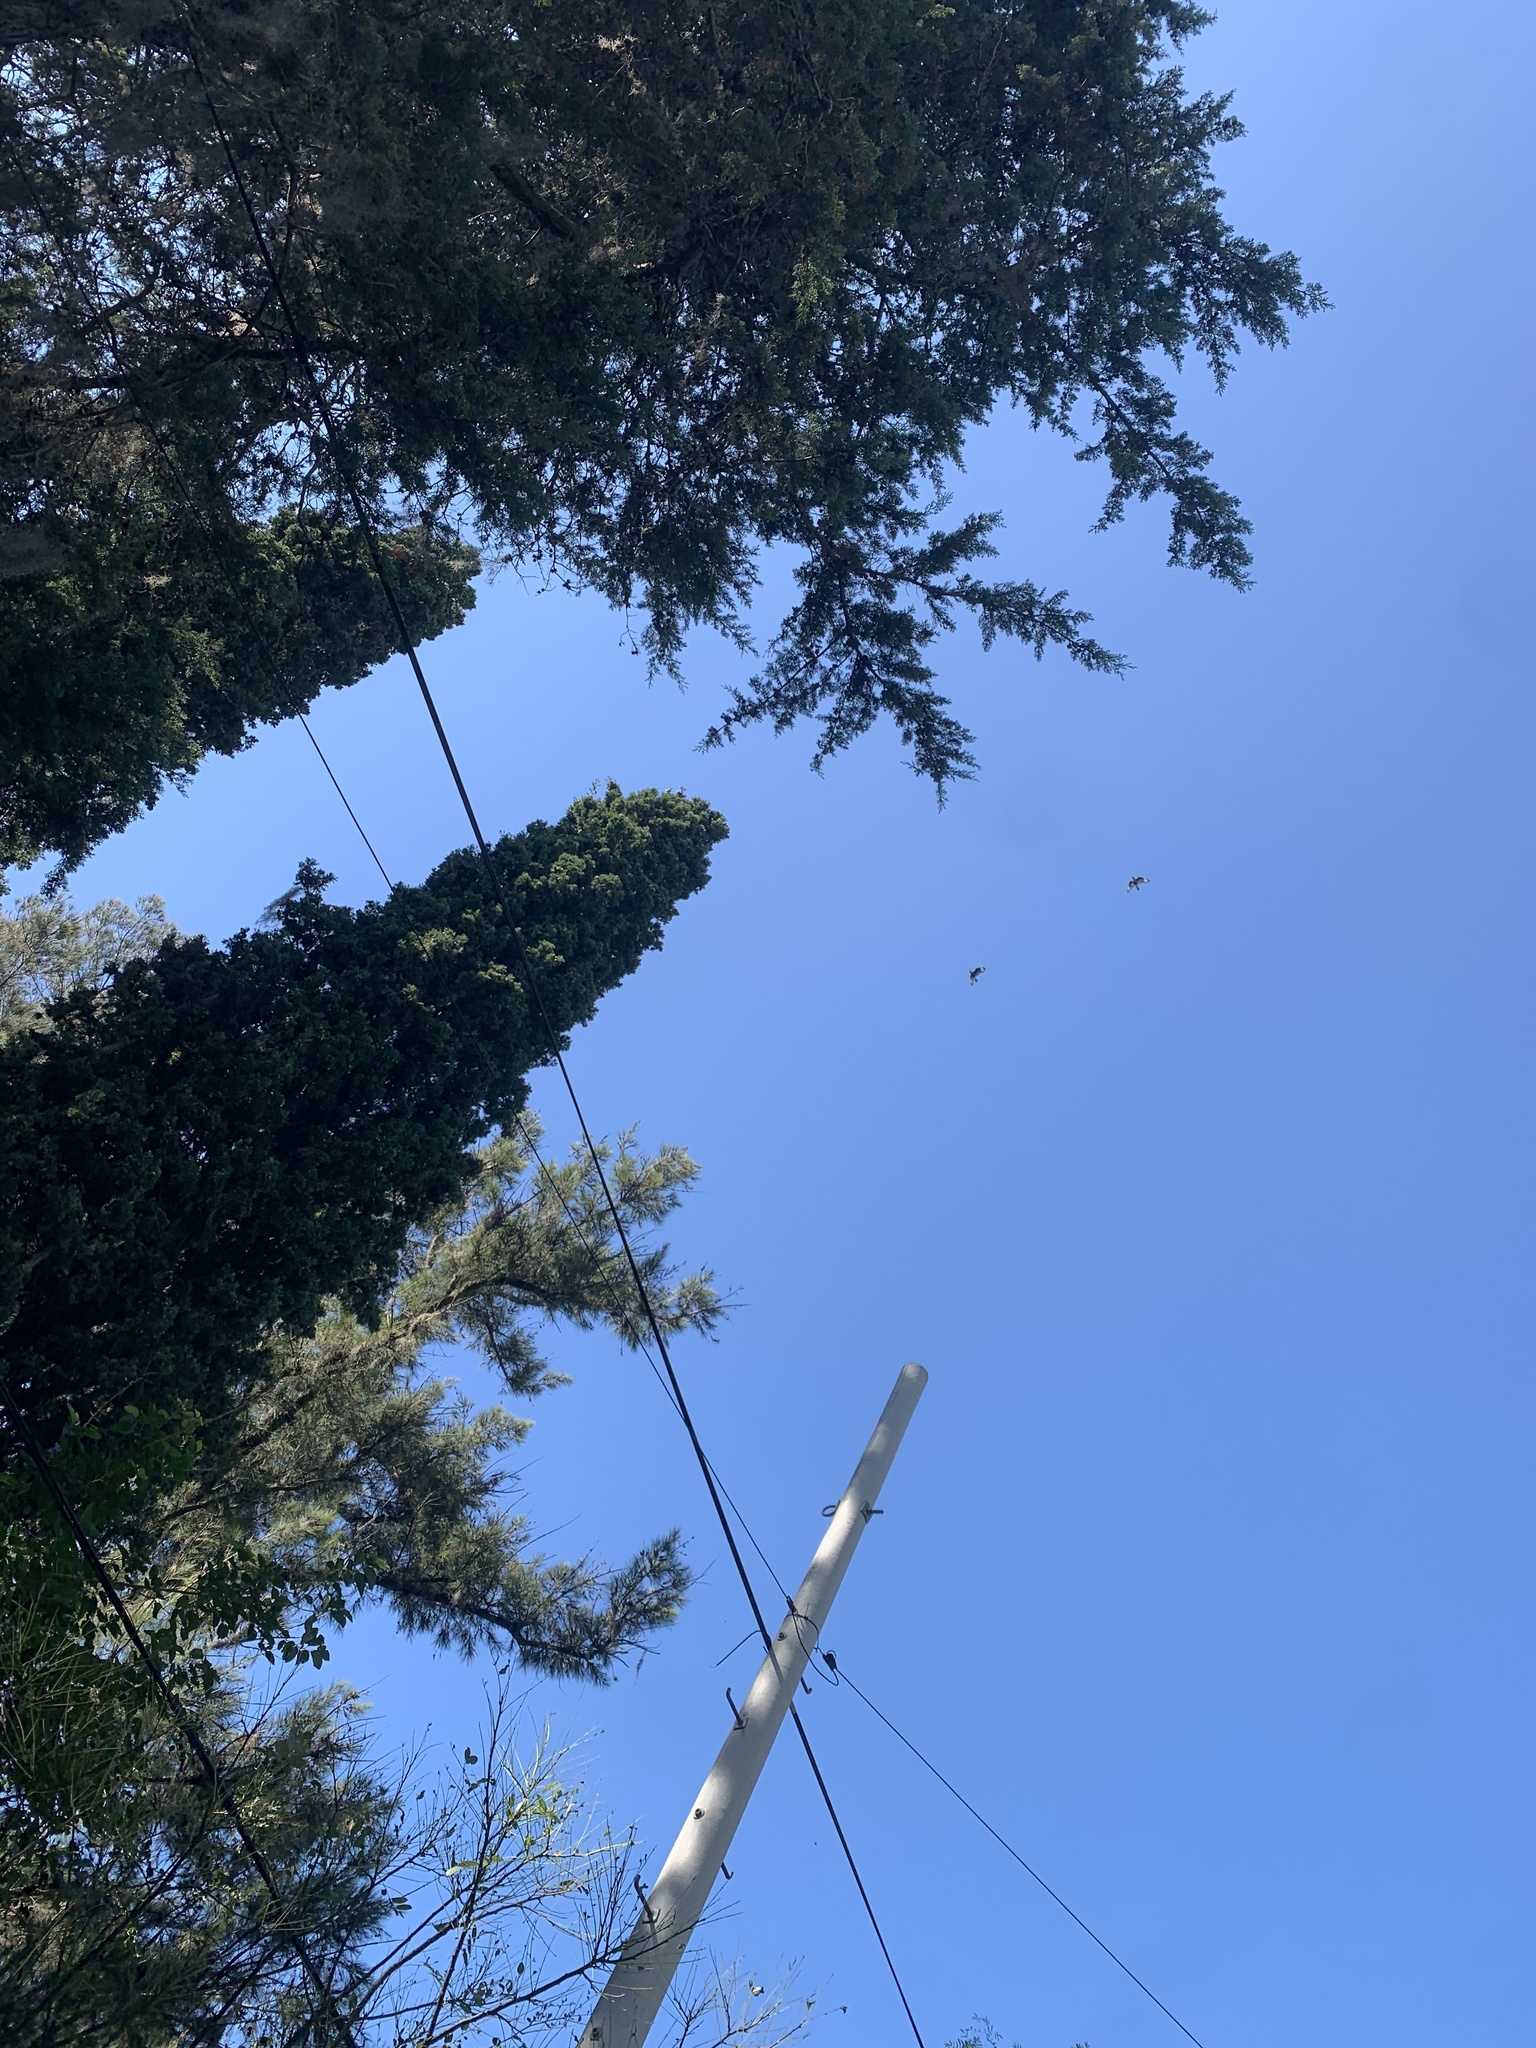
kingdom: Animalia
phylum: Chordata
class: Aves
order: Falconiformes
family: Falconidae
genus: Caracara
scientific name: Caracara plancus
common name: Southern caracara
